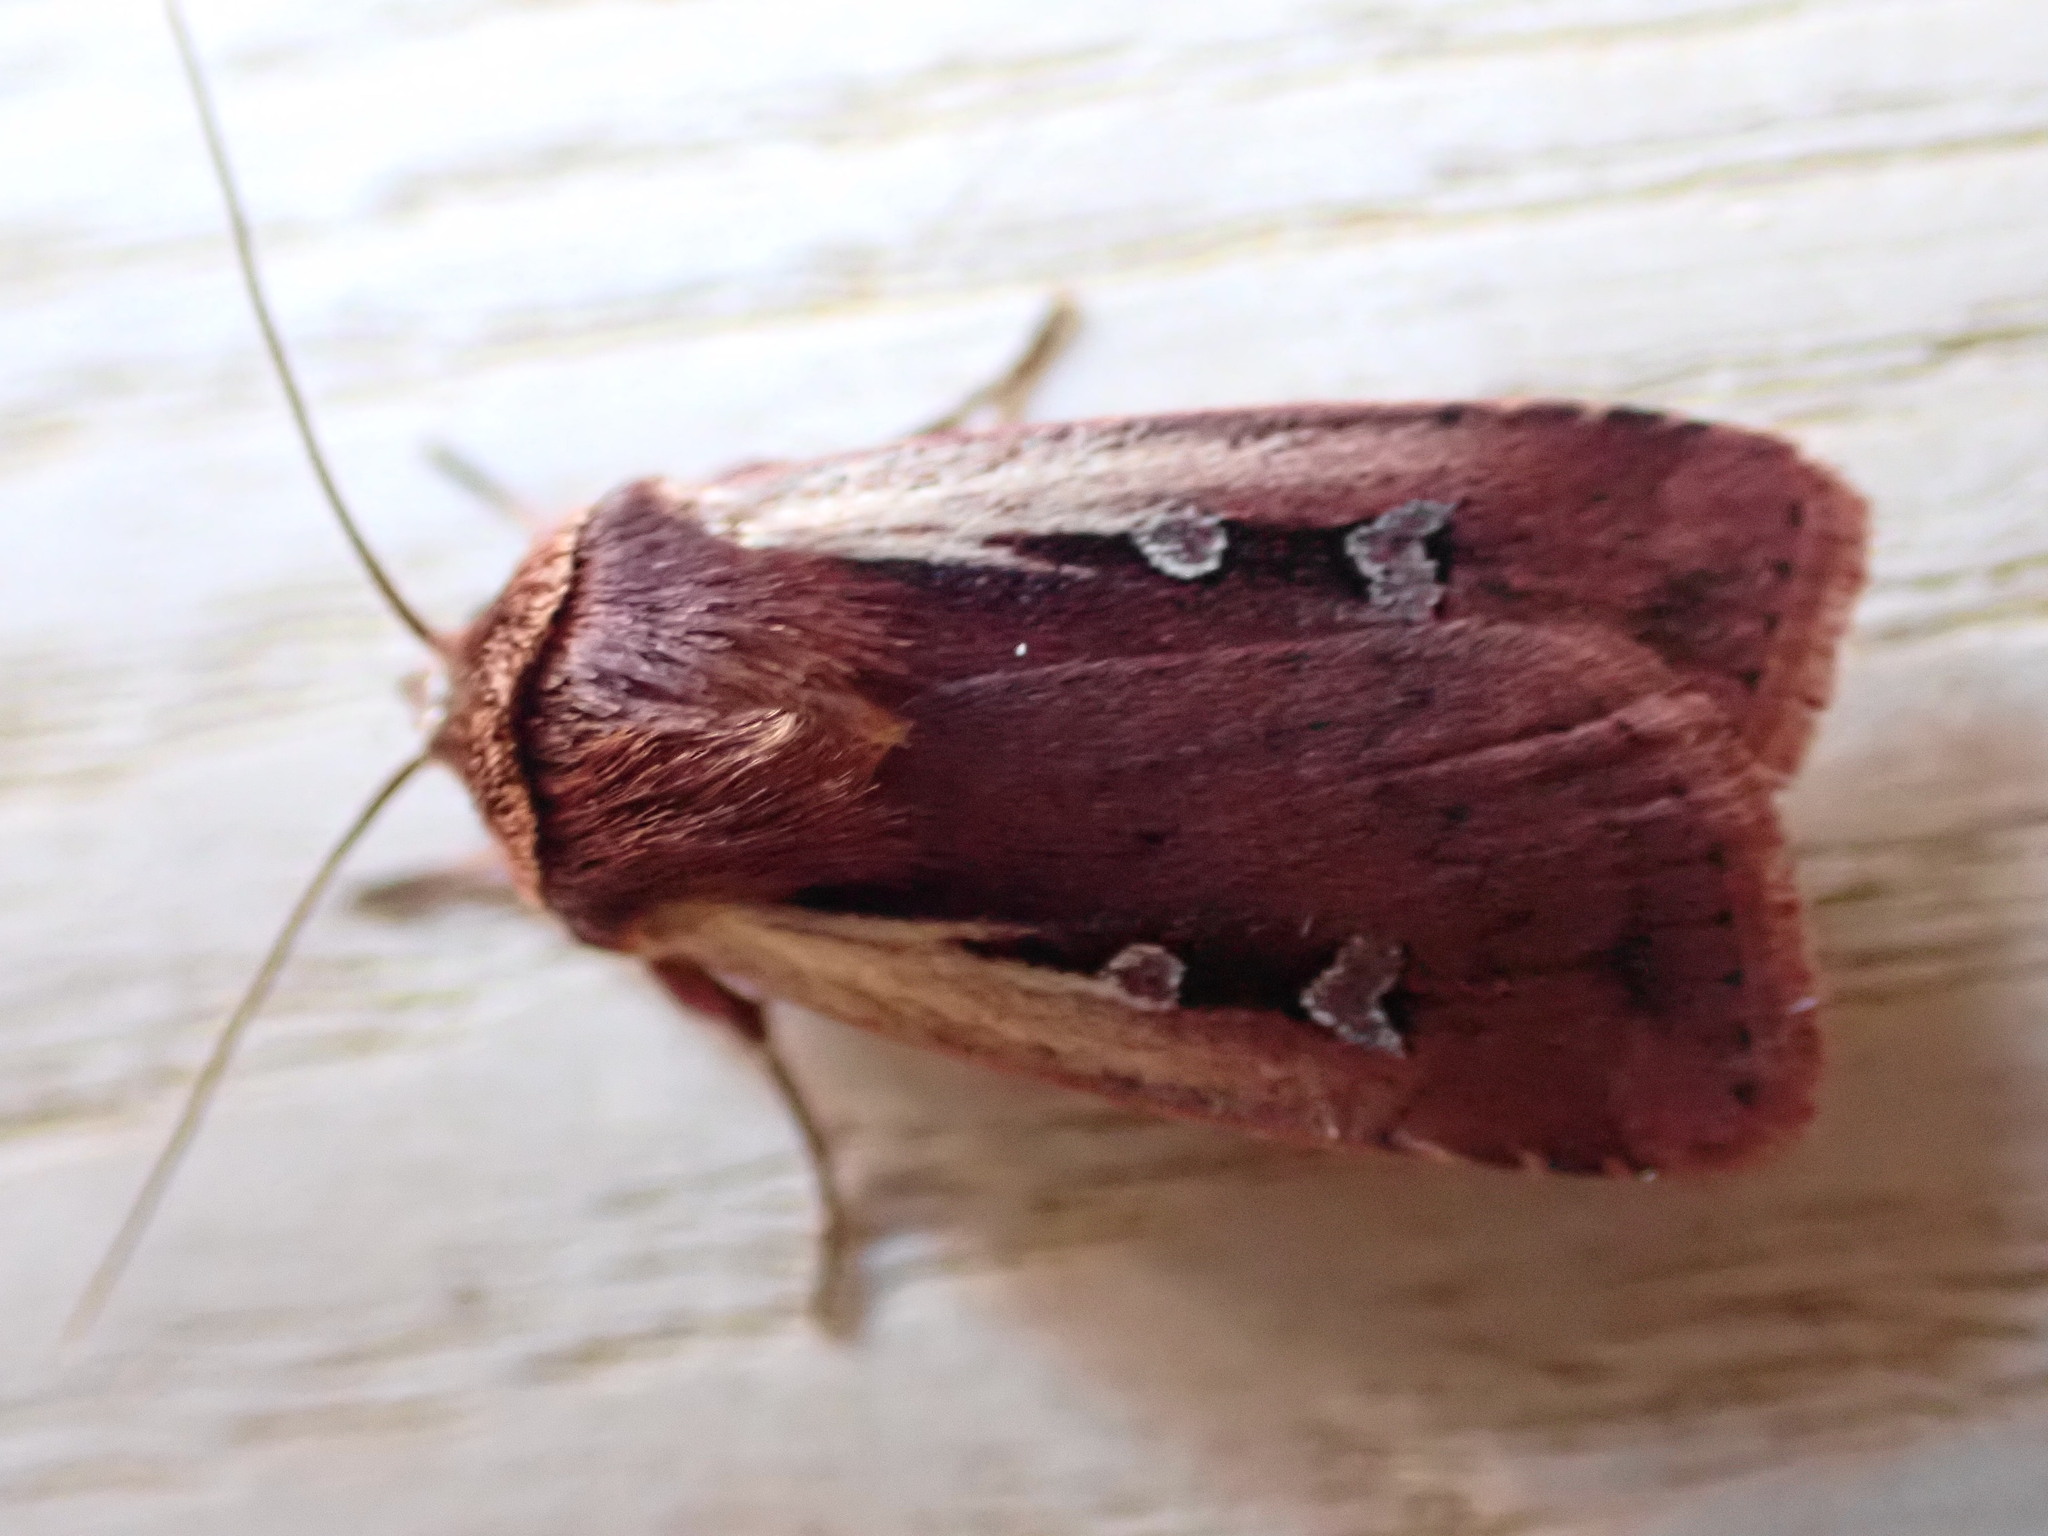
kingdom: Animalia
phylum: Arthropoda
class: Insecta
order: Lepidoptera
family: Noctuidae
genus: Ochropleura
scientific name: Ochropleura plecta
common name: Flame shoulder
